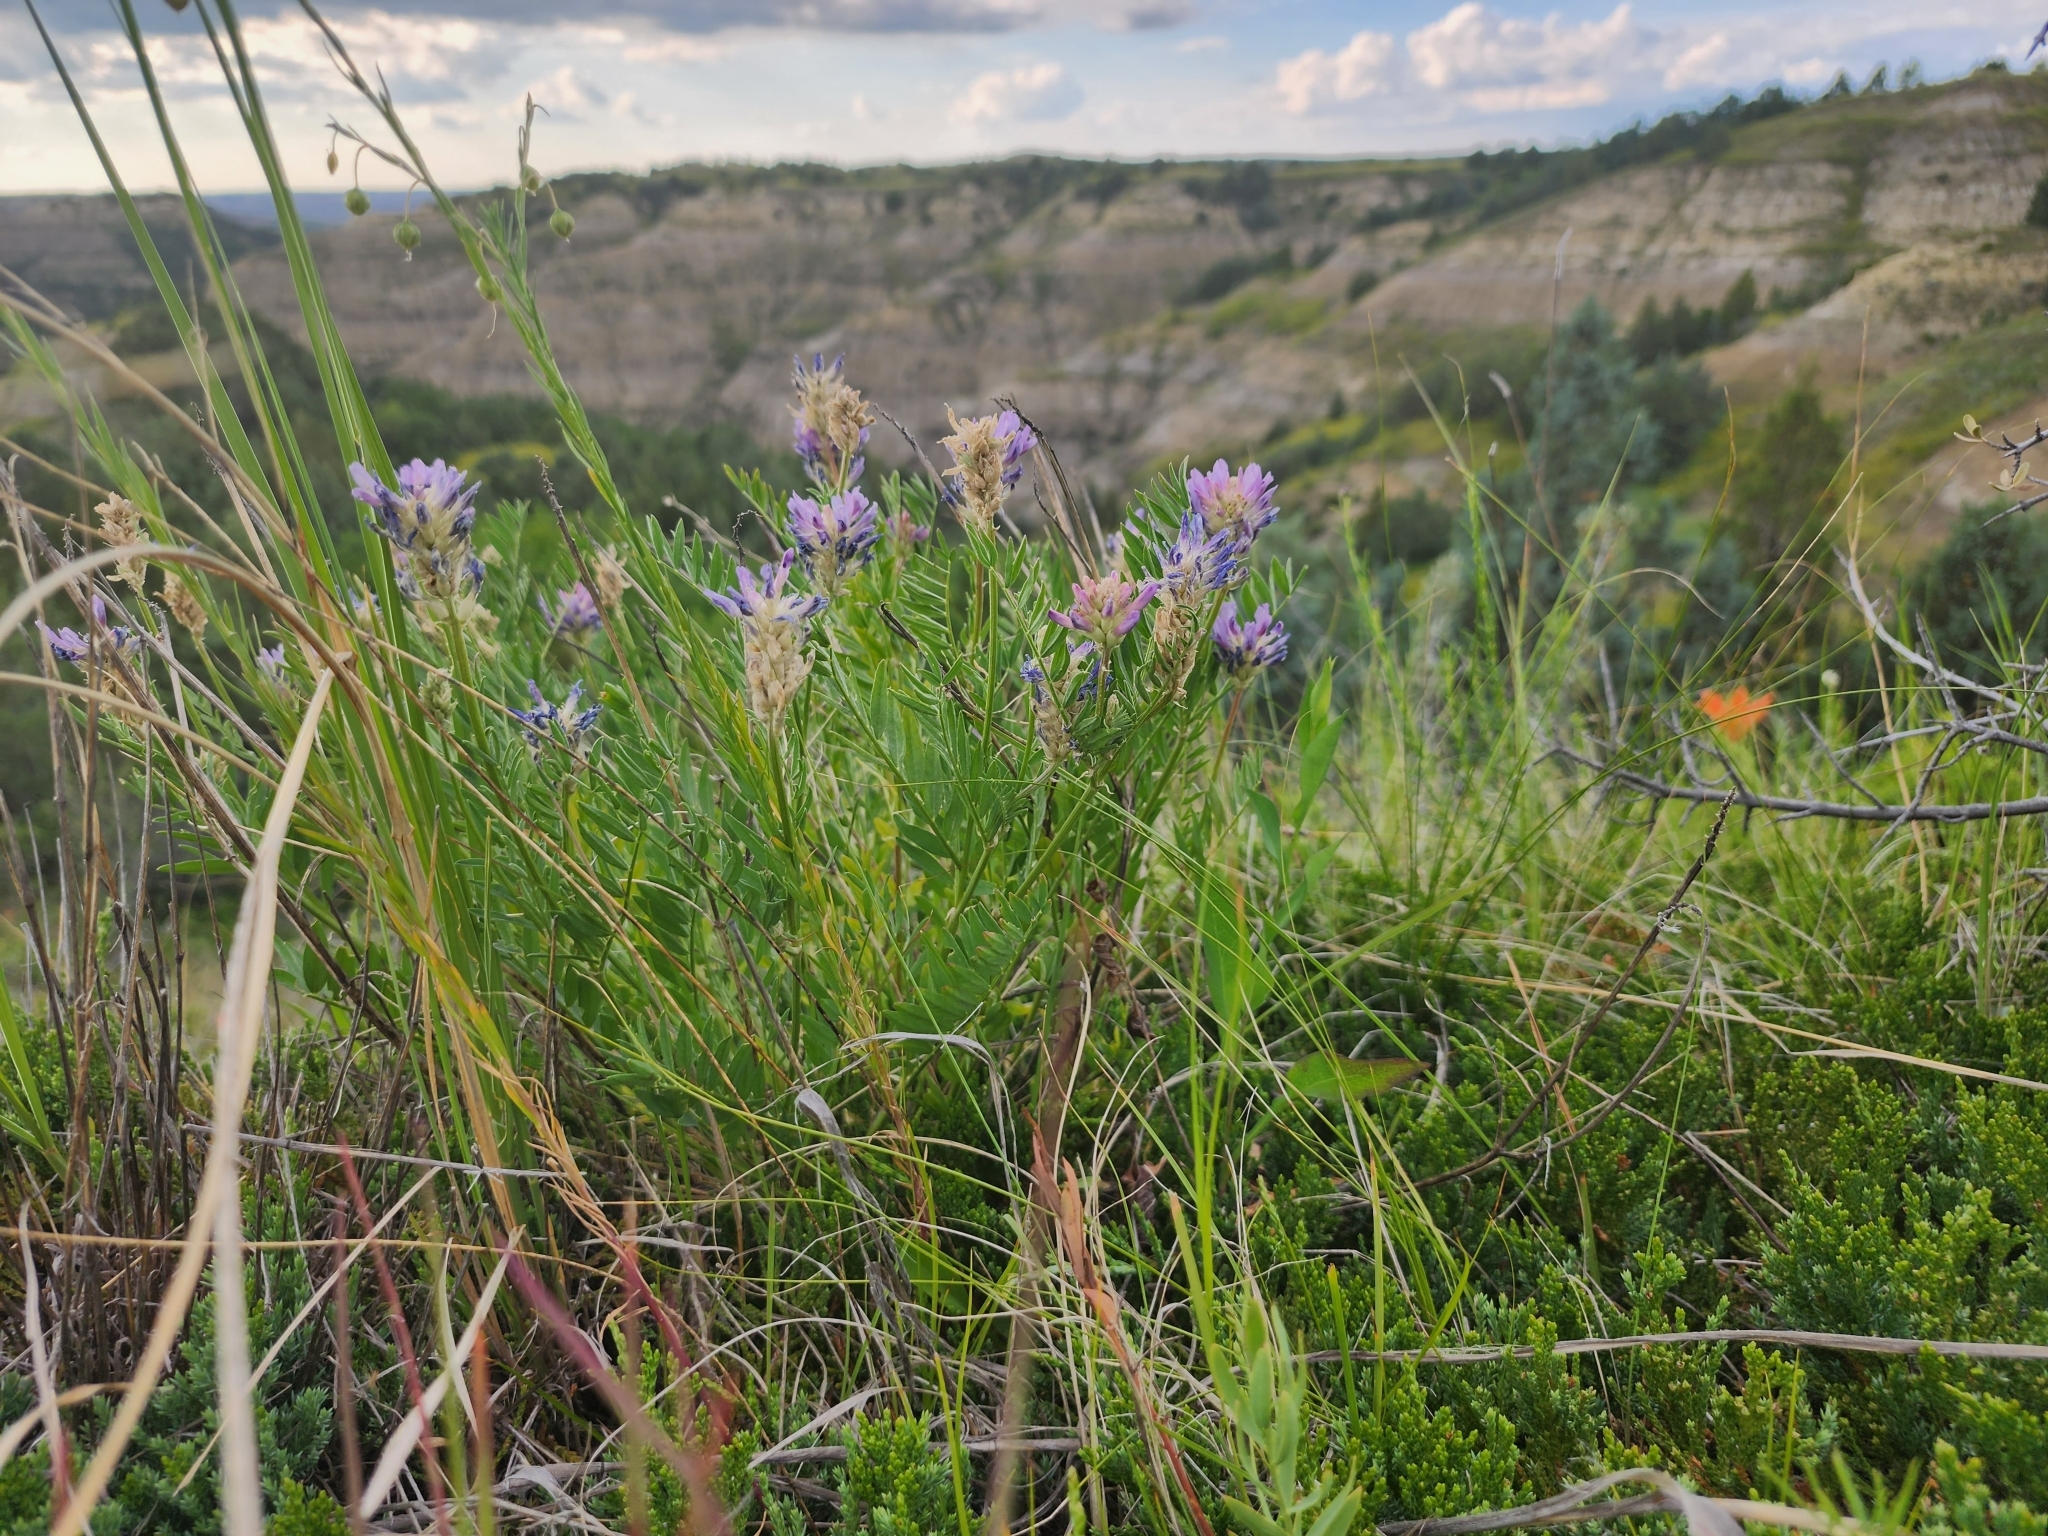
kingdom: Plantae
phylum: Tracheophyta
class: Magnoliopsida
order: Fabales
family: Fabaceae
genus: Astragalus
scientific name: Astragalus laxmannii
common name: Laxmann's milk-vetch
